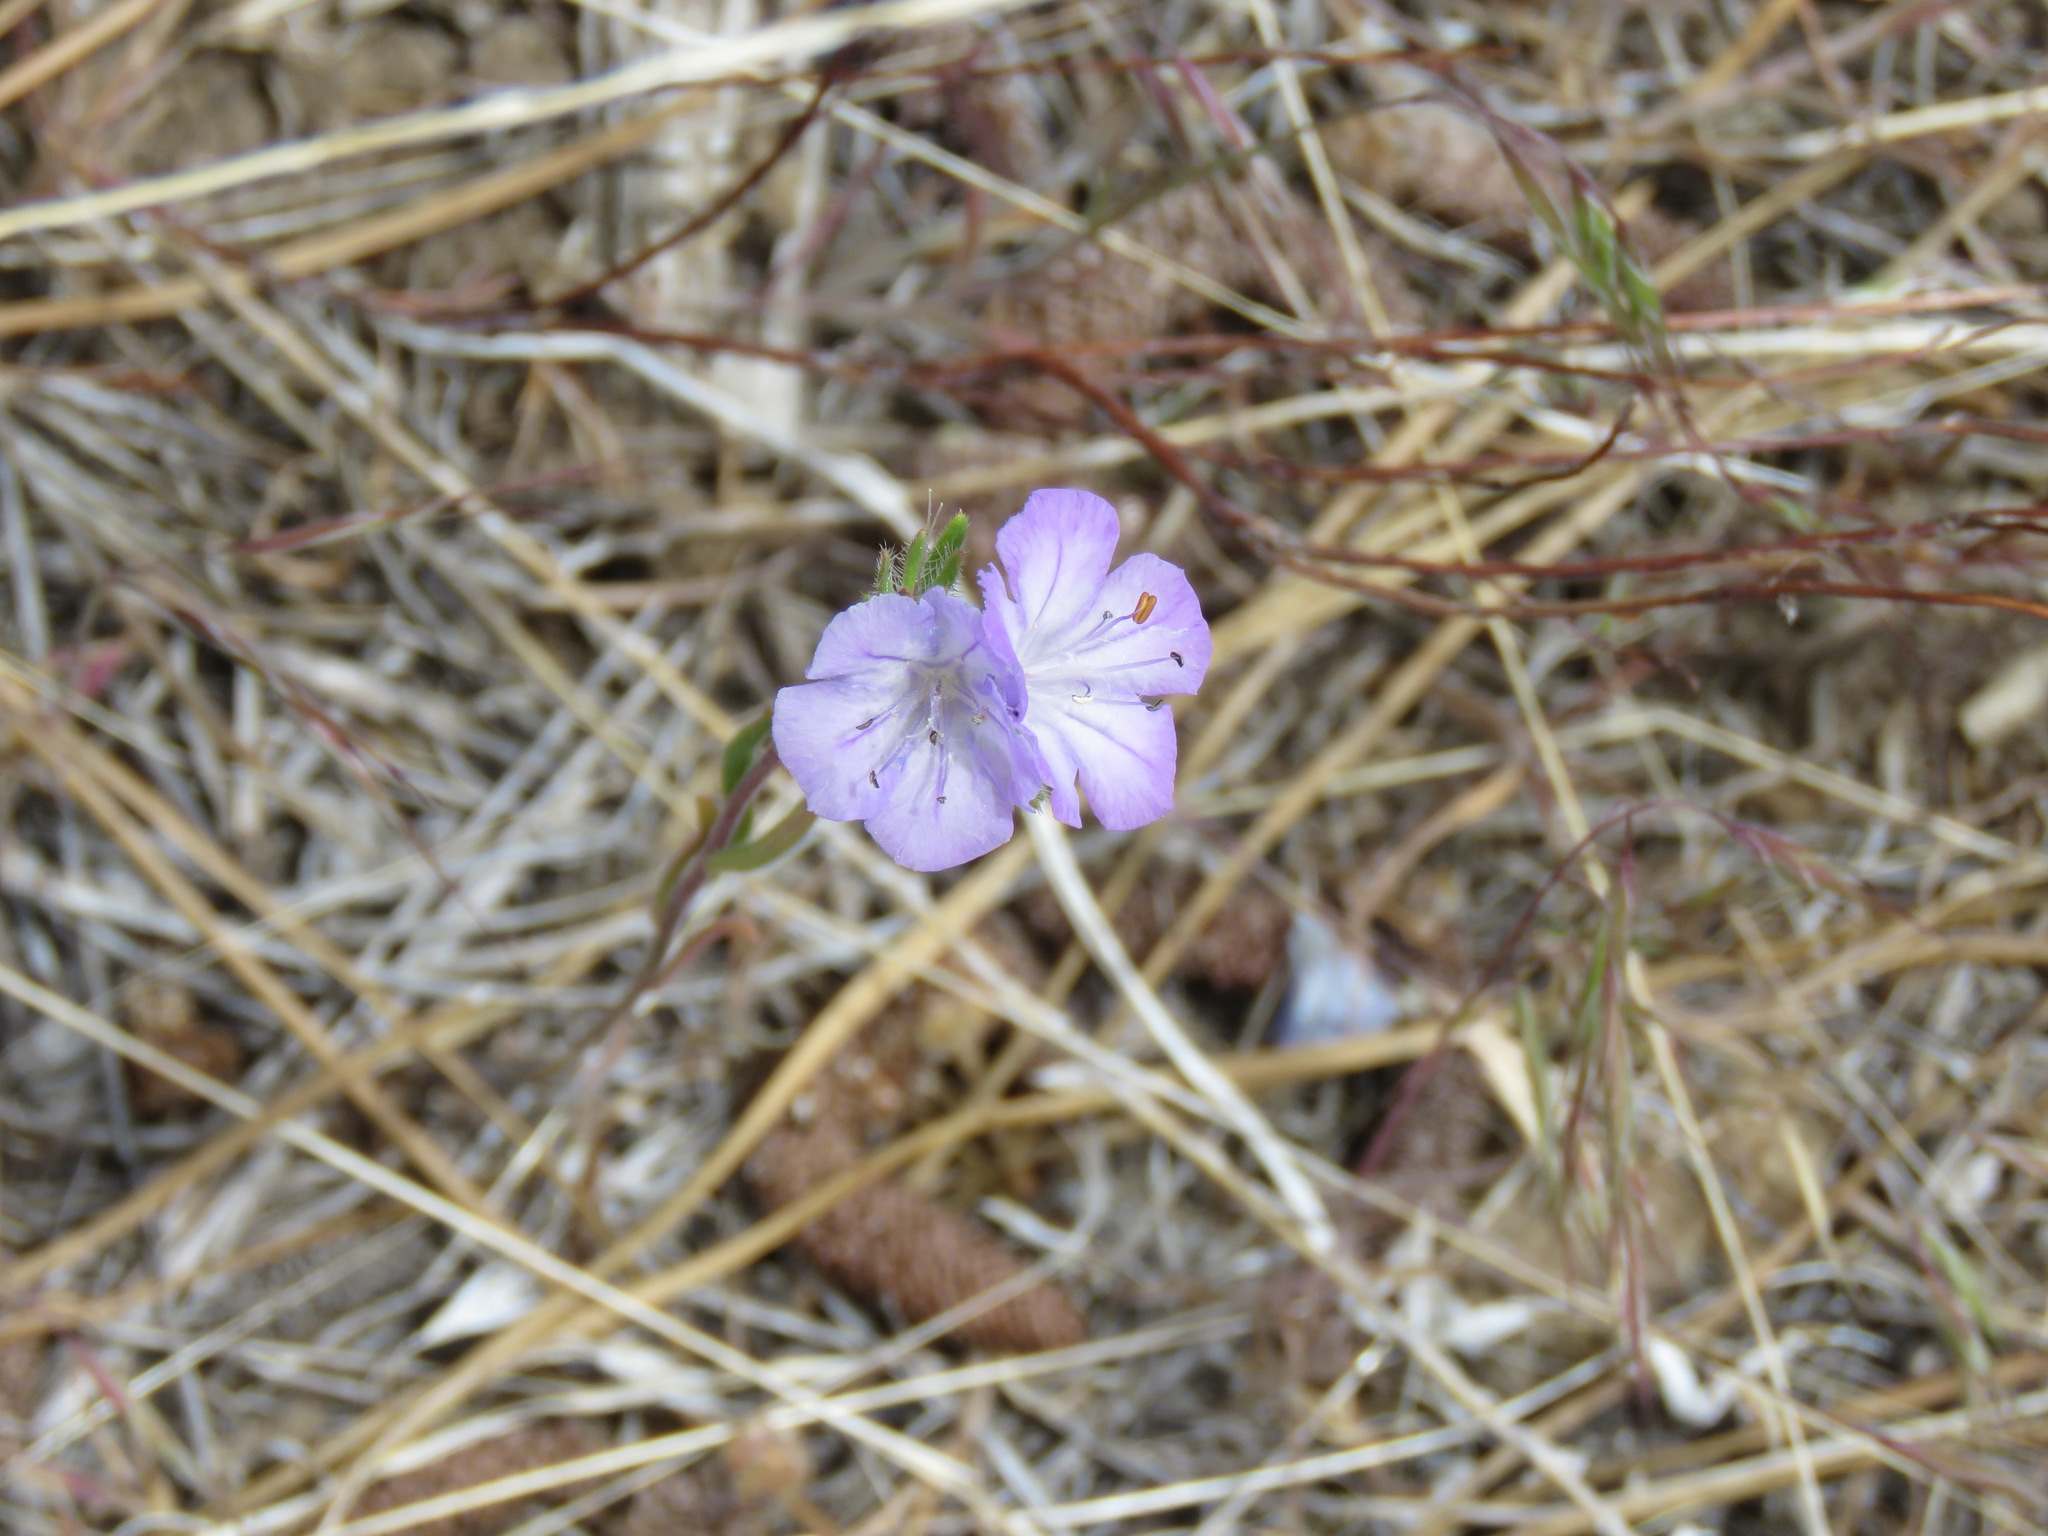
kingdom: Plantae
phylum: Tracheophyta
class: Magnoliopsida
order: Boraginales
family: Hydrophyllaceae
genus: Phacelia
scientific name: Phacelia linearis
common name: Linear-leaved phacelia
